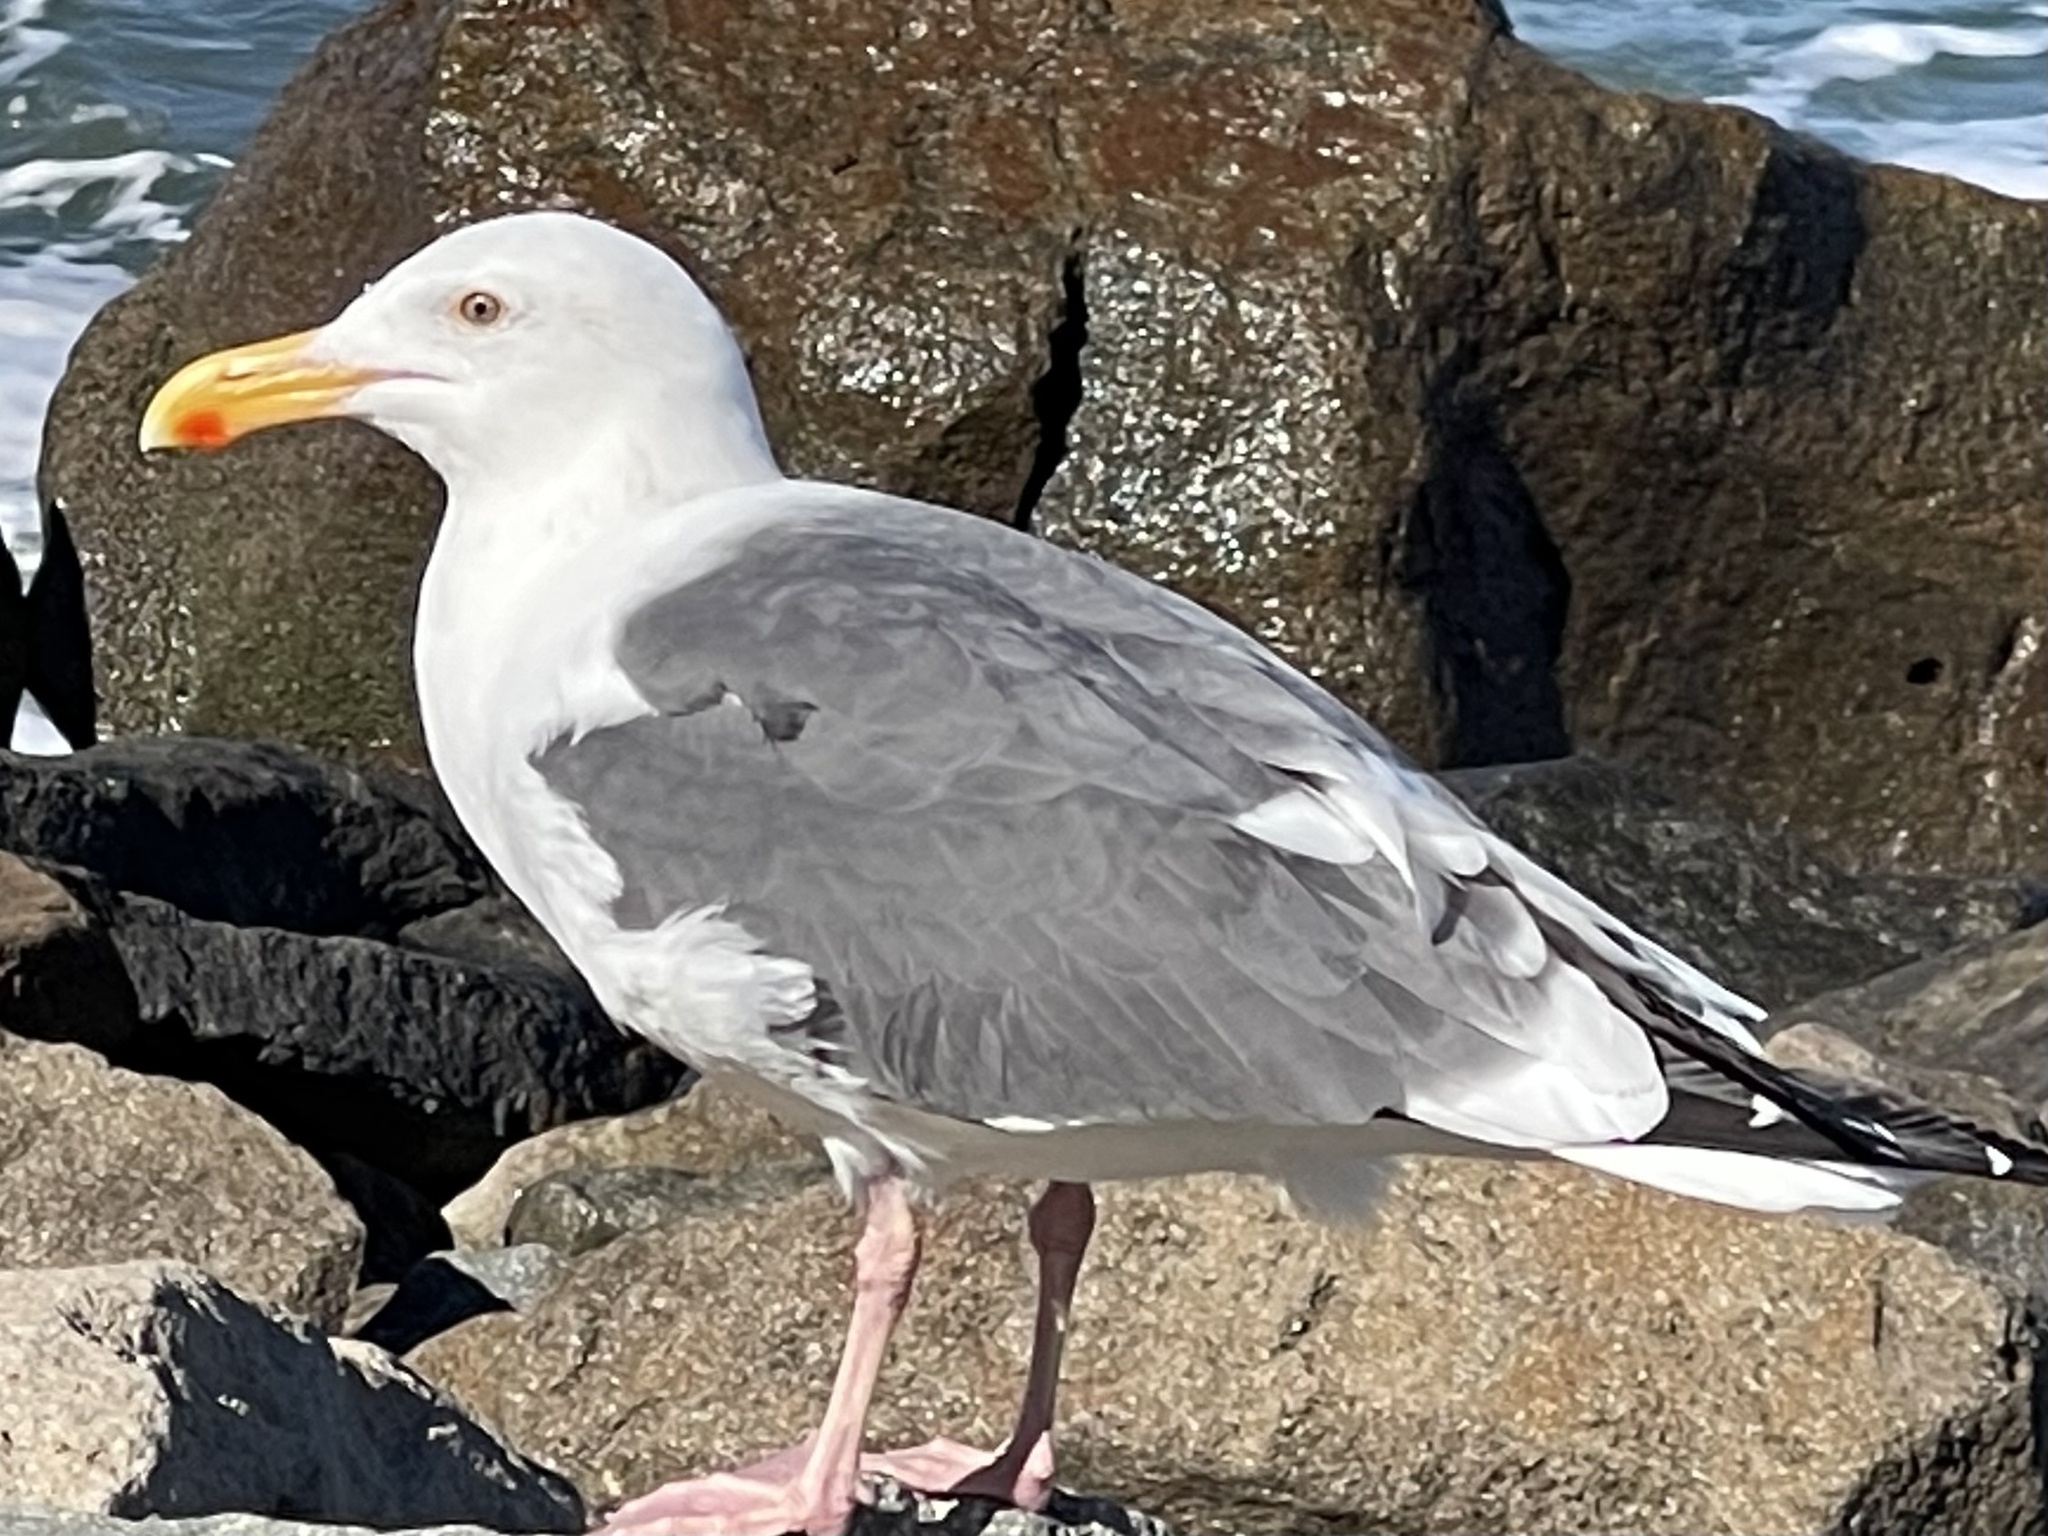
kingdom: Animalia
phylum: Chordata
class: Aves
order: Charadriiformes
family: Laridae
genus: Larus
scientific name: Larus occidentalis
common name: Western gull
